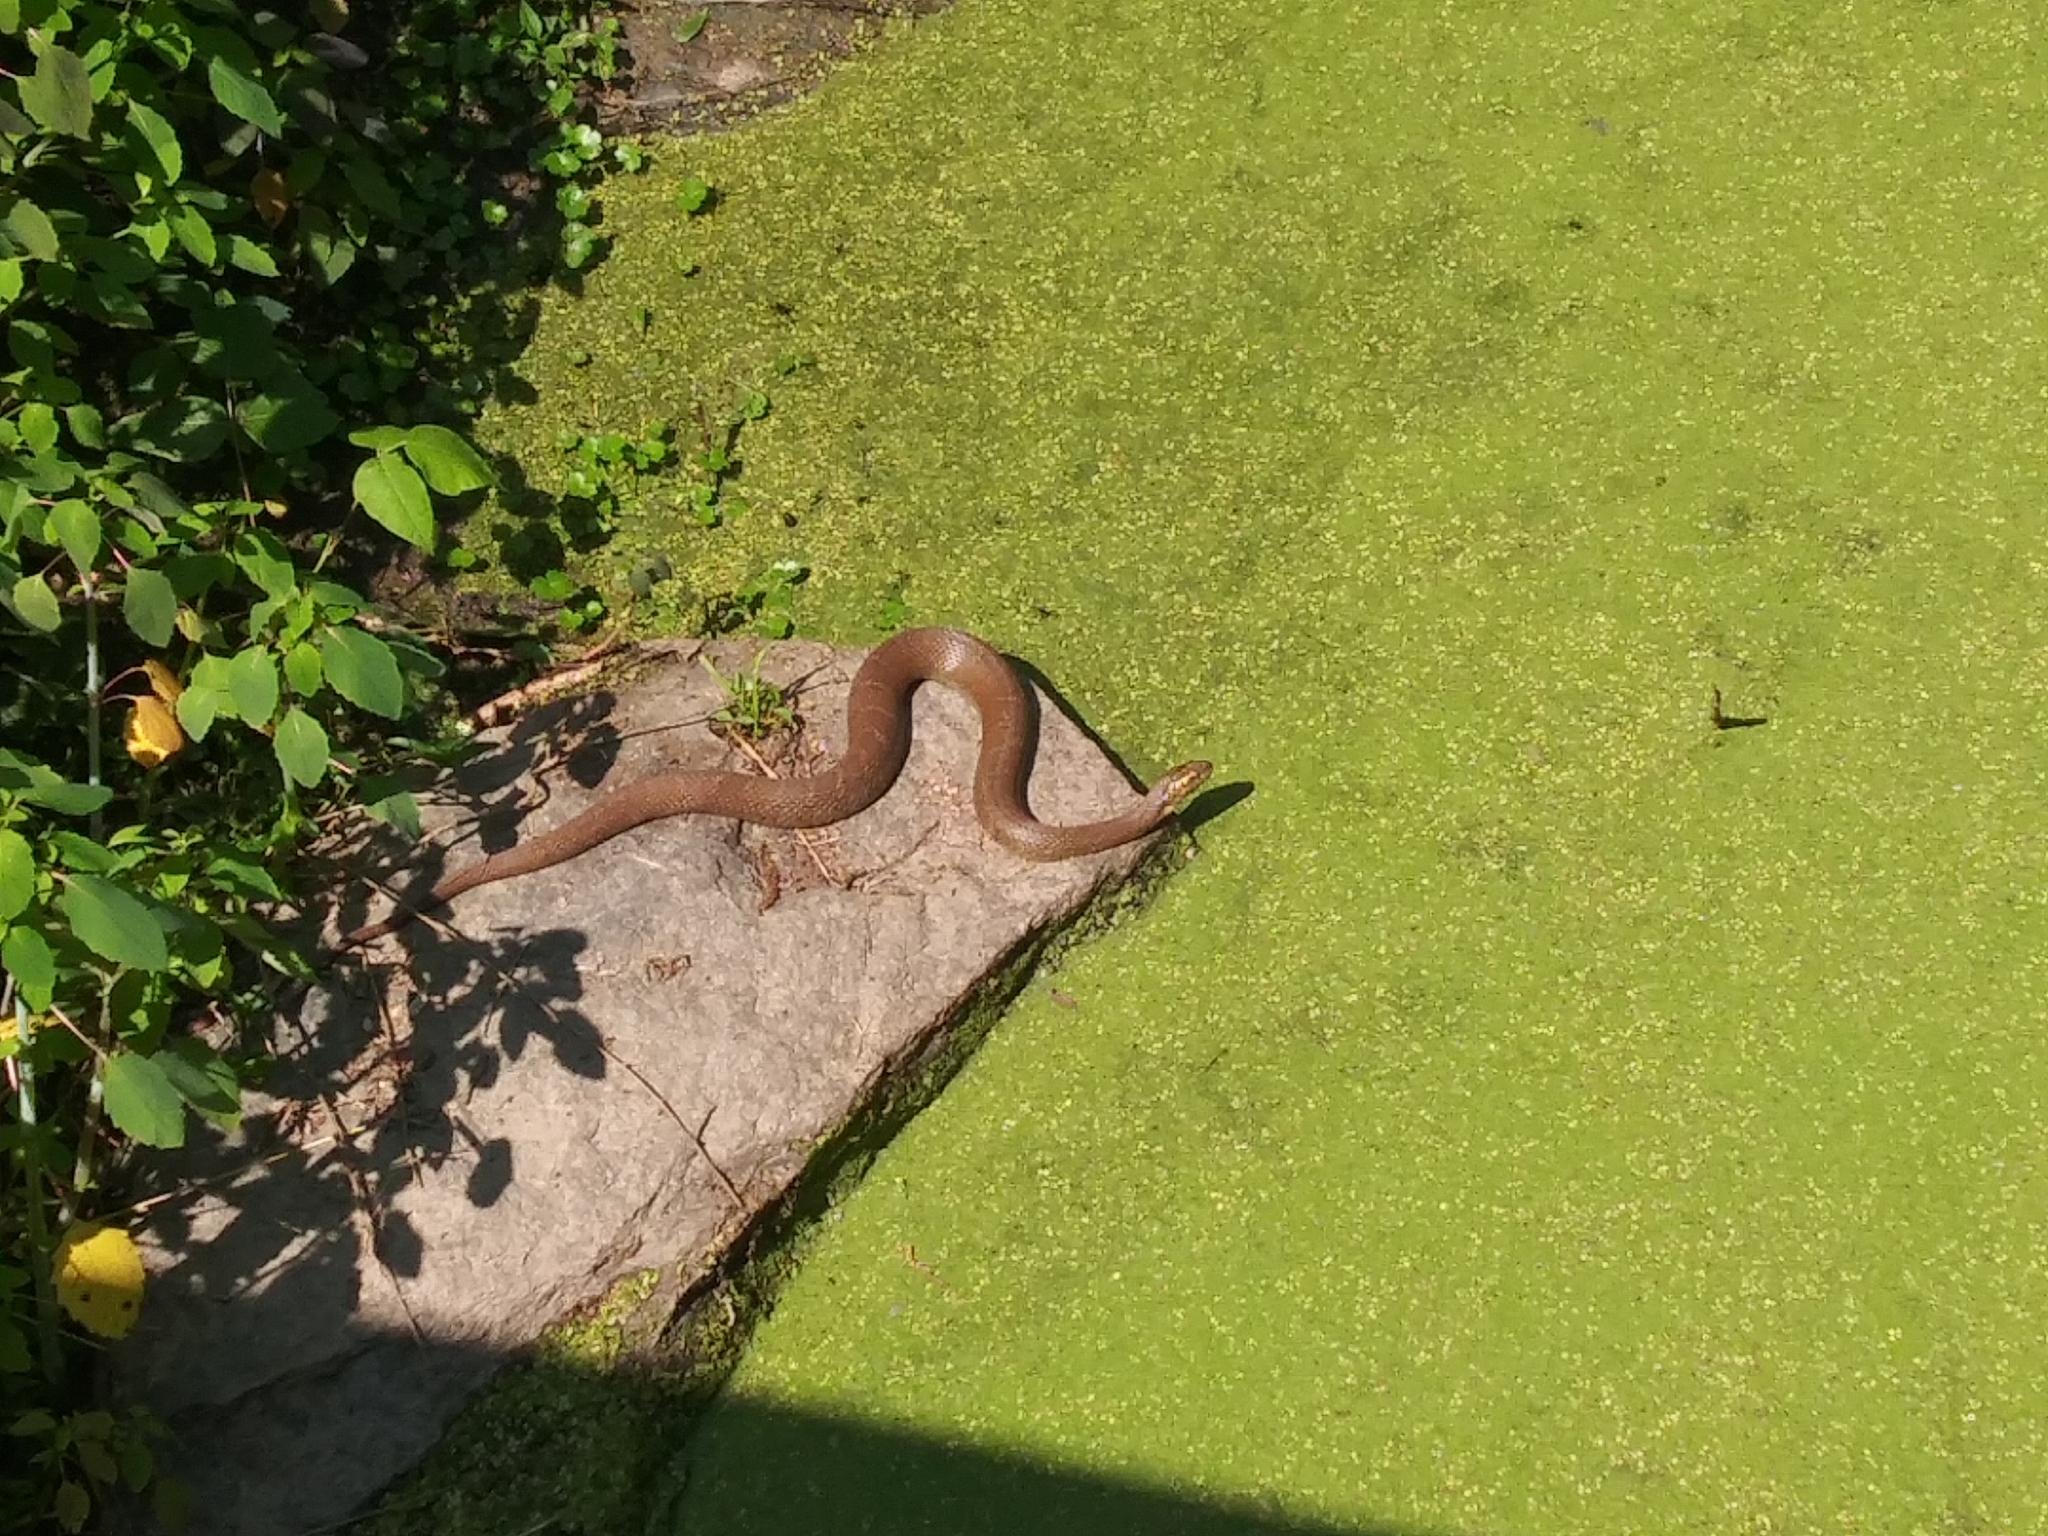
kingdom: Animalia
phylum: Chordata
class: Squamata
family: Colubridae
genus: Nerodia
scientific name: Nerodia sipedon
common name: Northern water snake
